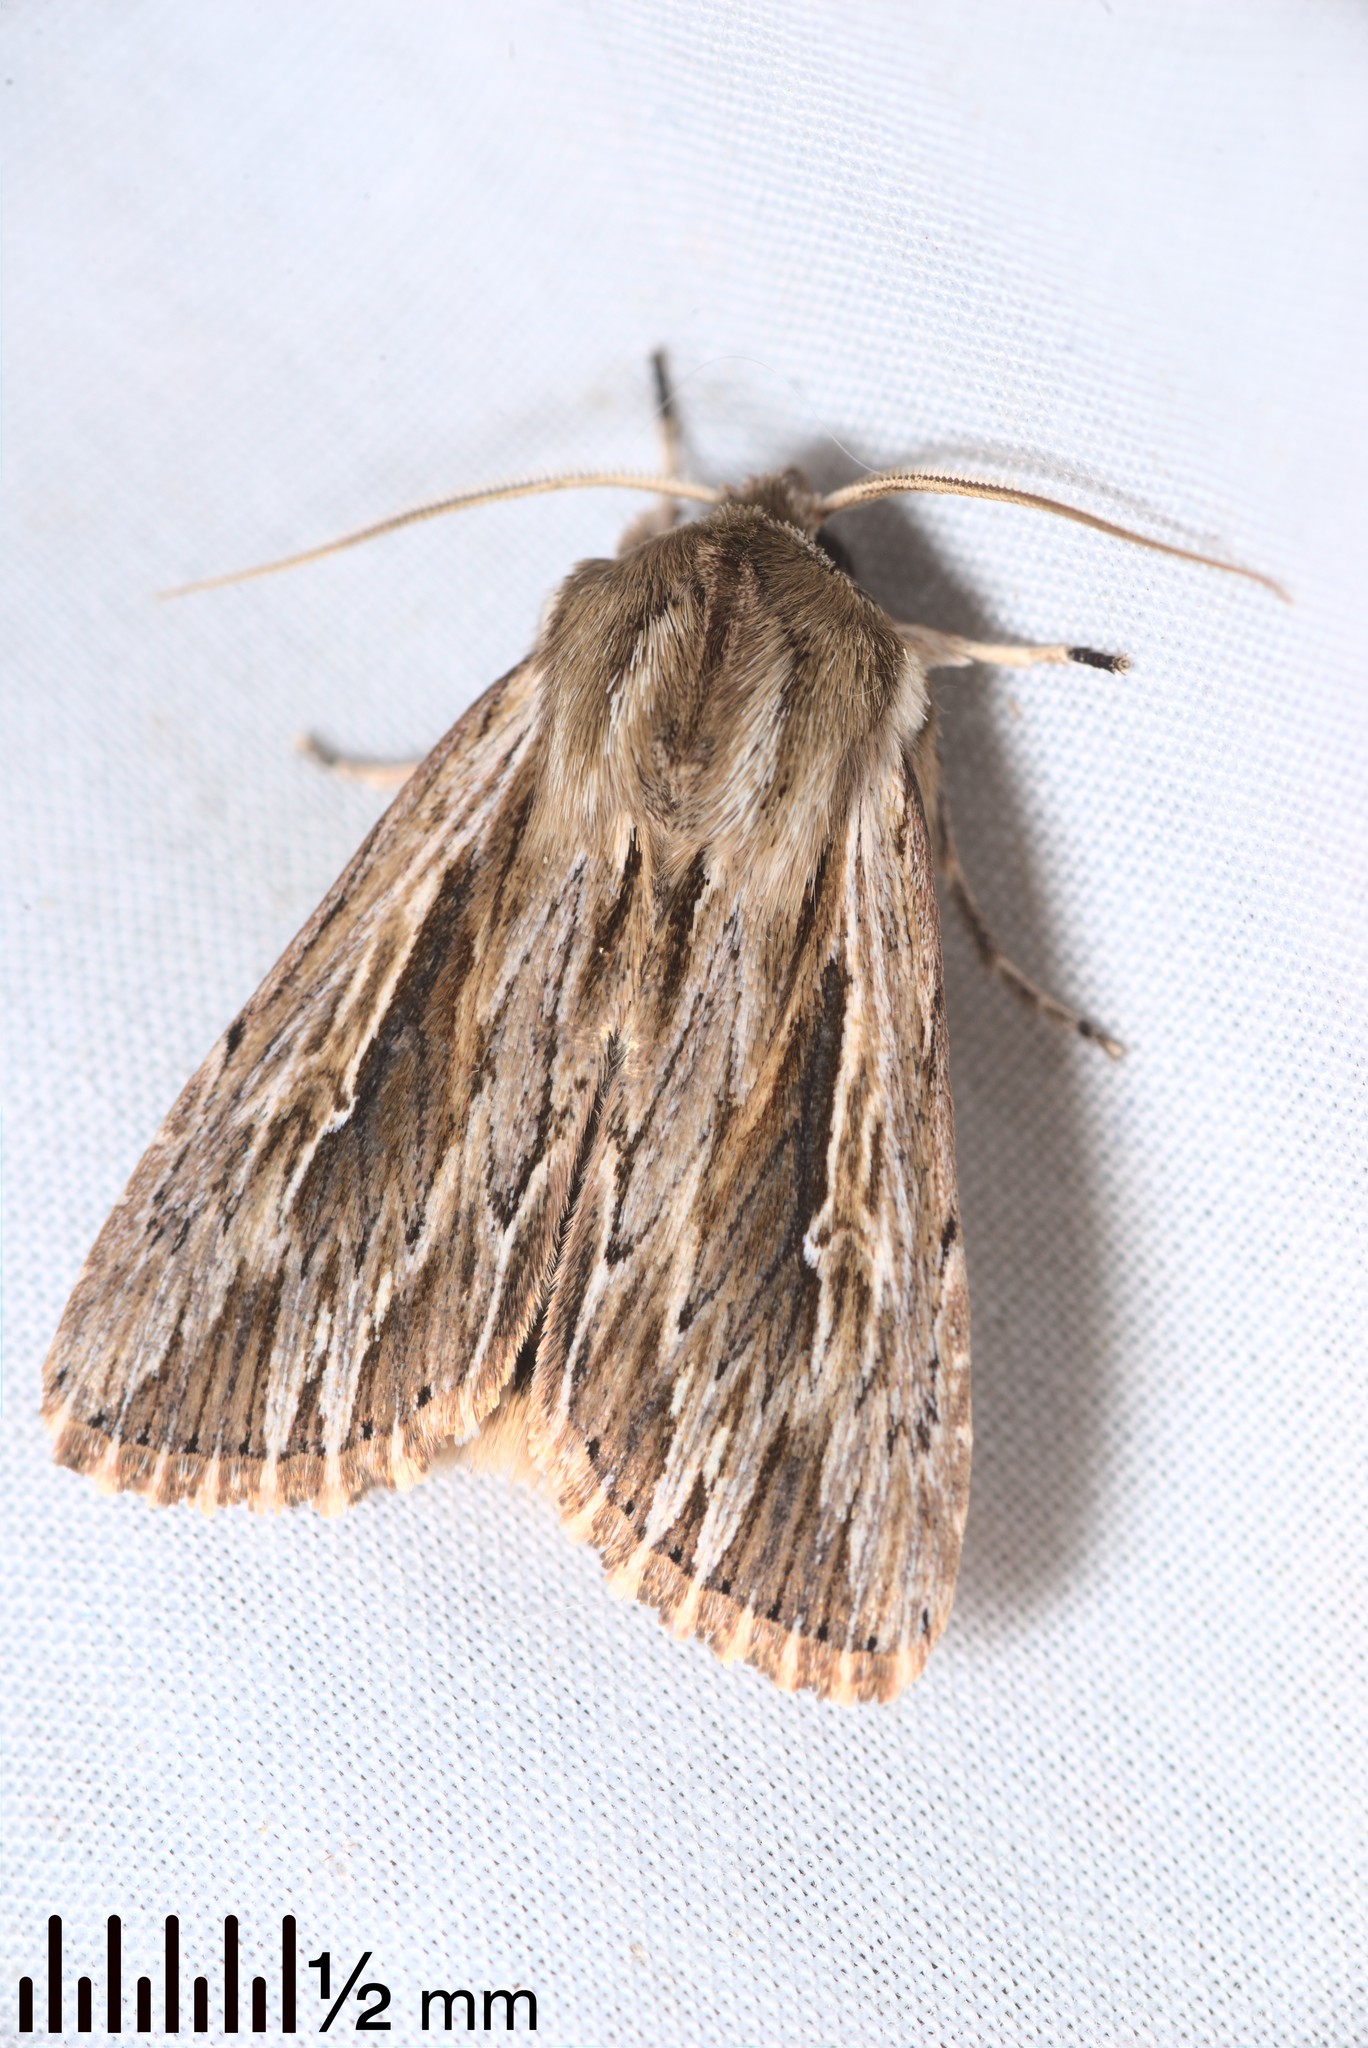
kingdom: Animalia
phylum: Arthropoda
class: Insecta
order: Lepidoptera
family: Noctuidae
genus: Persectania
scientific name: Persectania aversa
